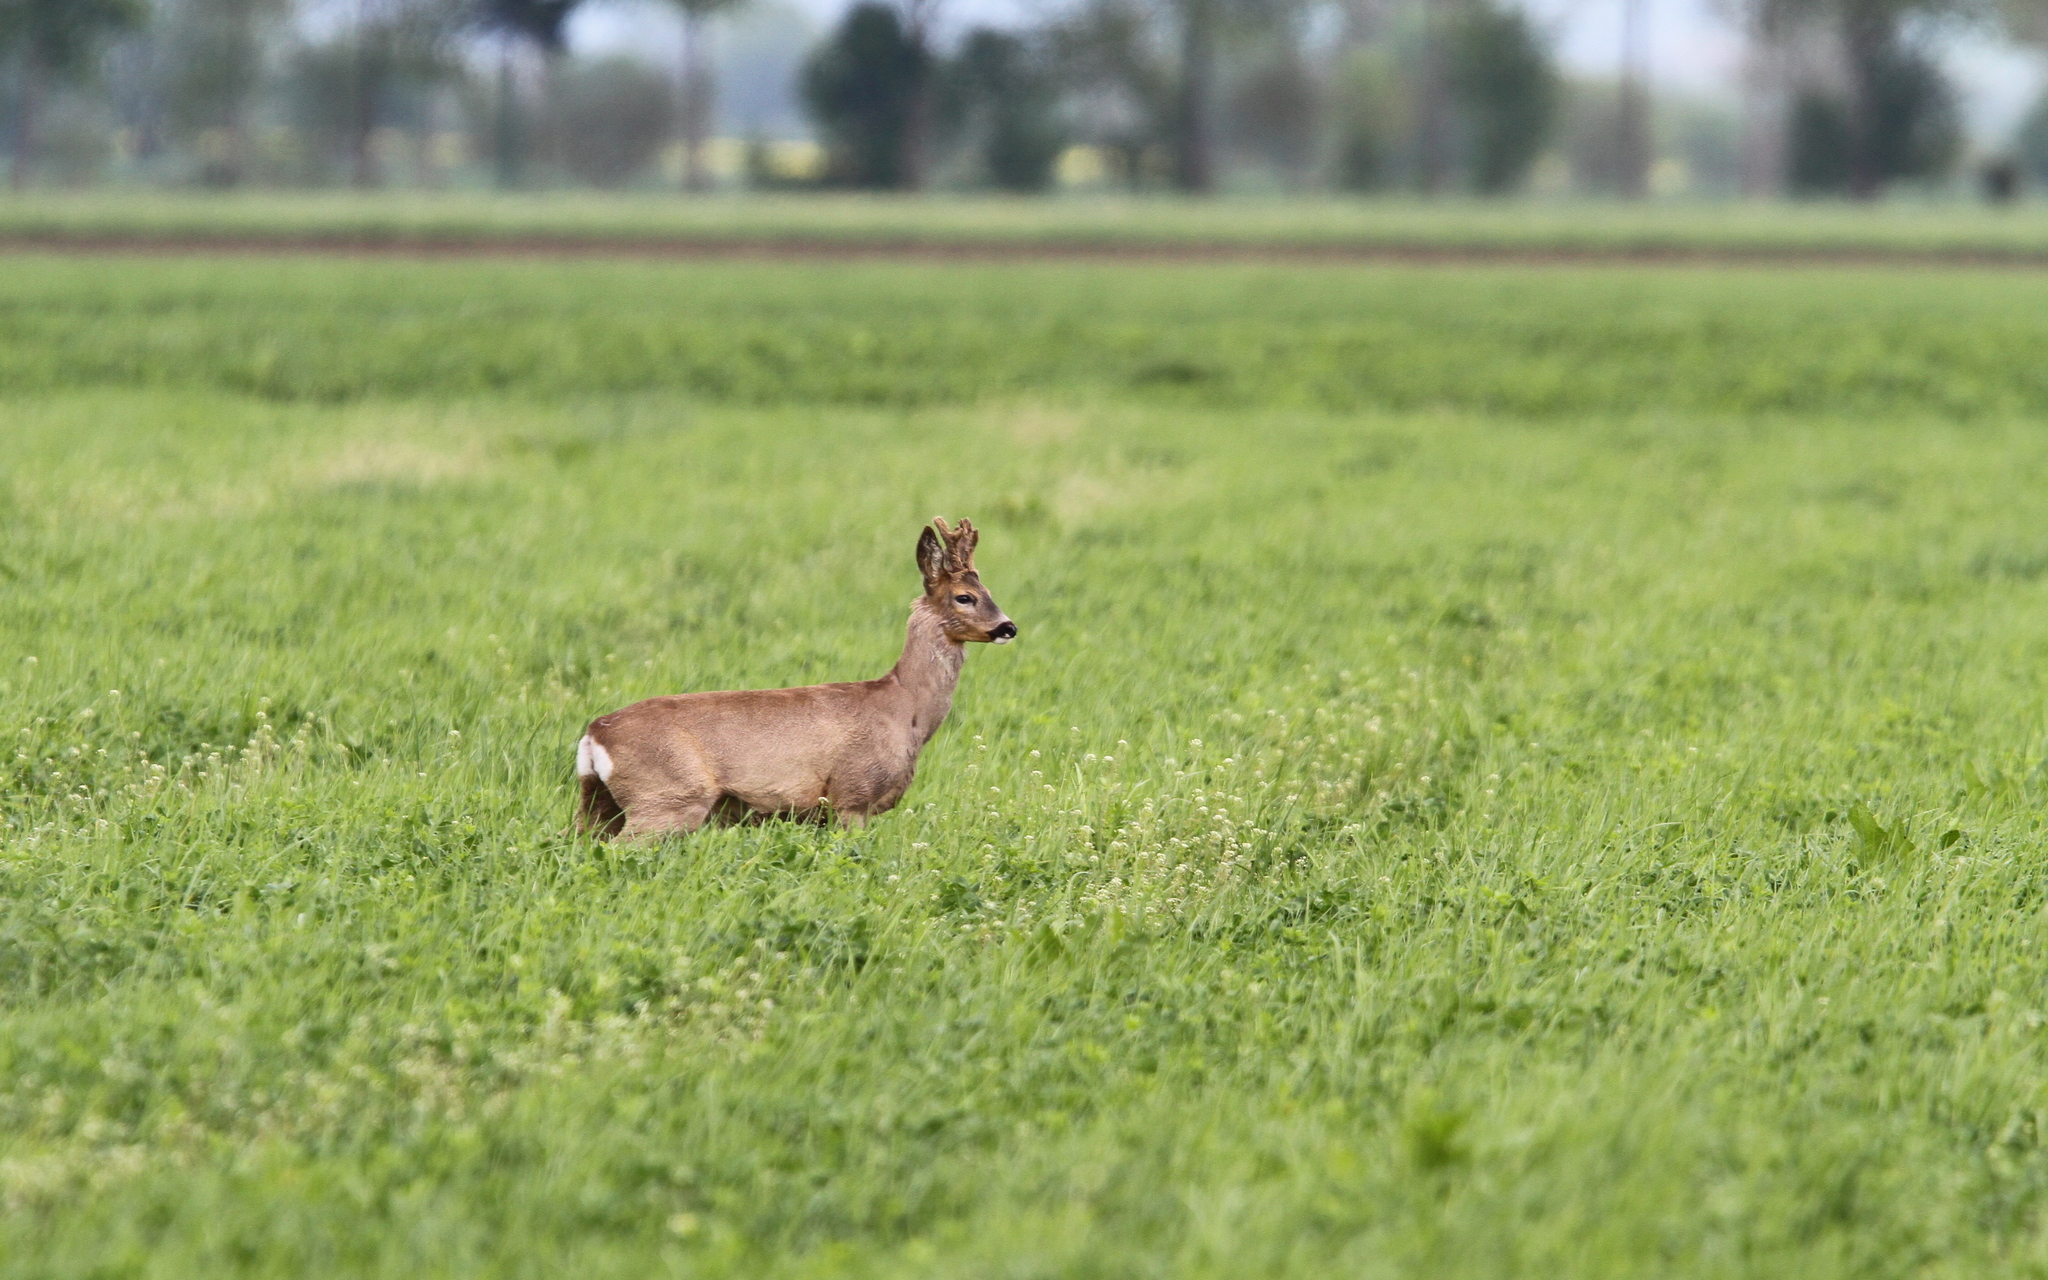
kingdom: Animalia
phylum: Chordata
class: Mammalia
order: Artiodactyla
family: Cervidae
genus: Capreolus
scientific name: Capreolus capreolus
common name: Western roe deer
